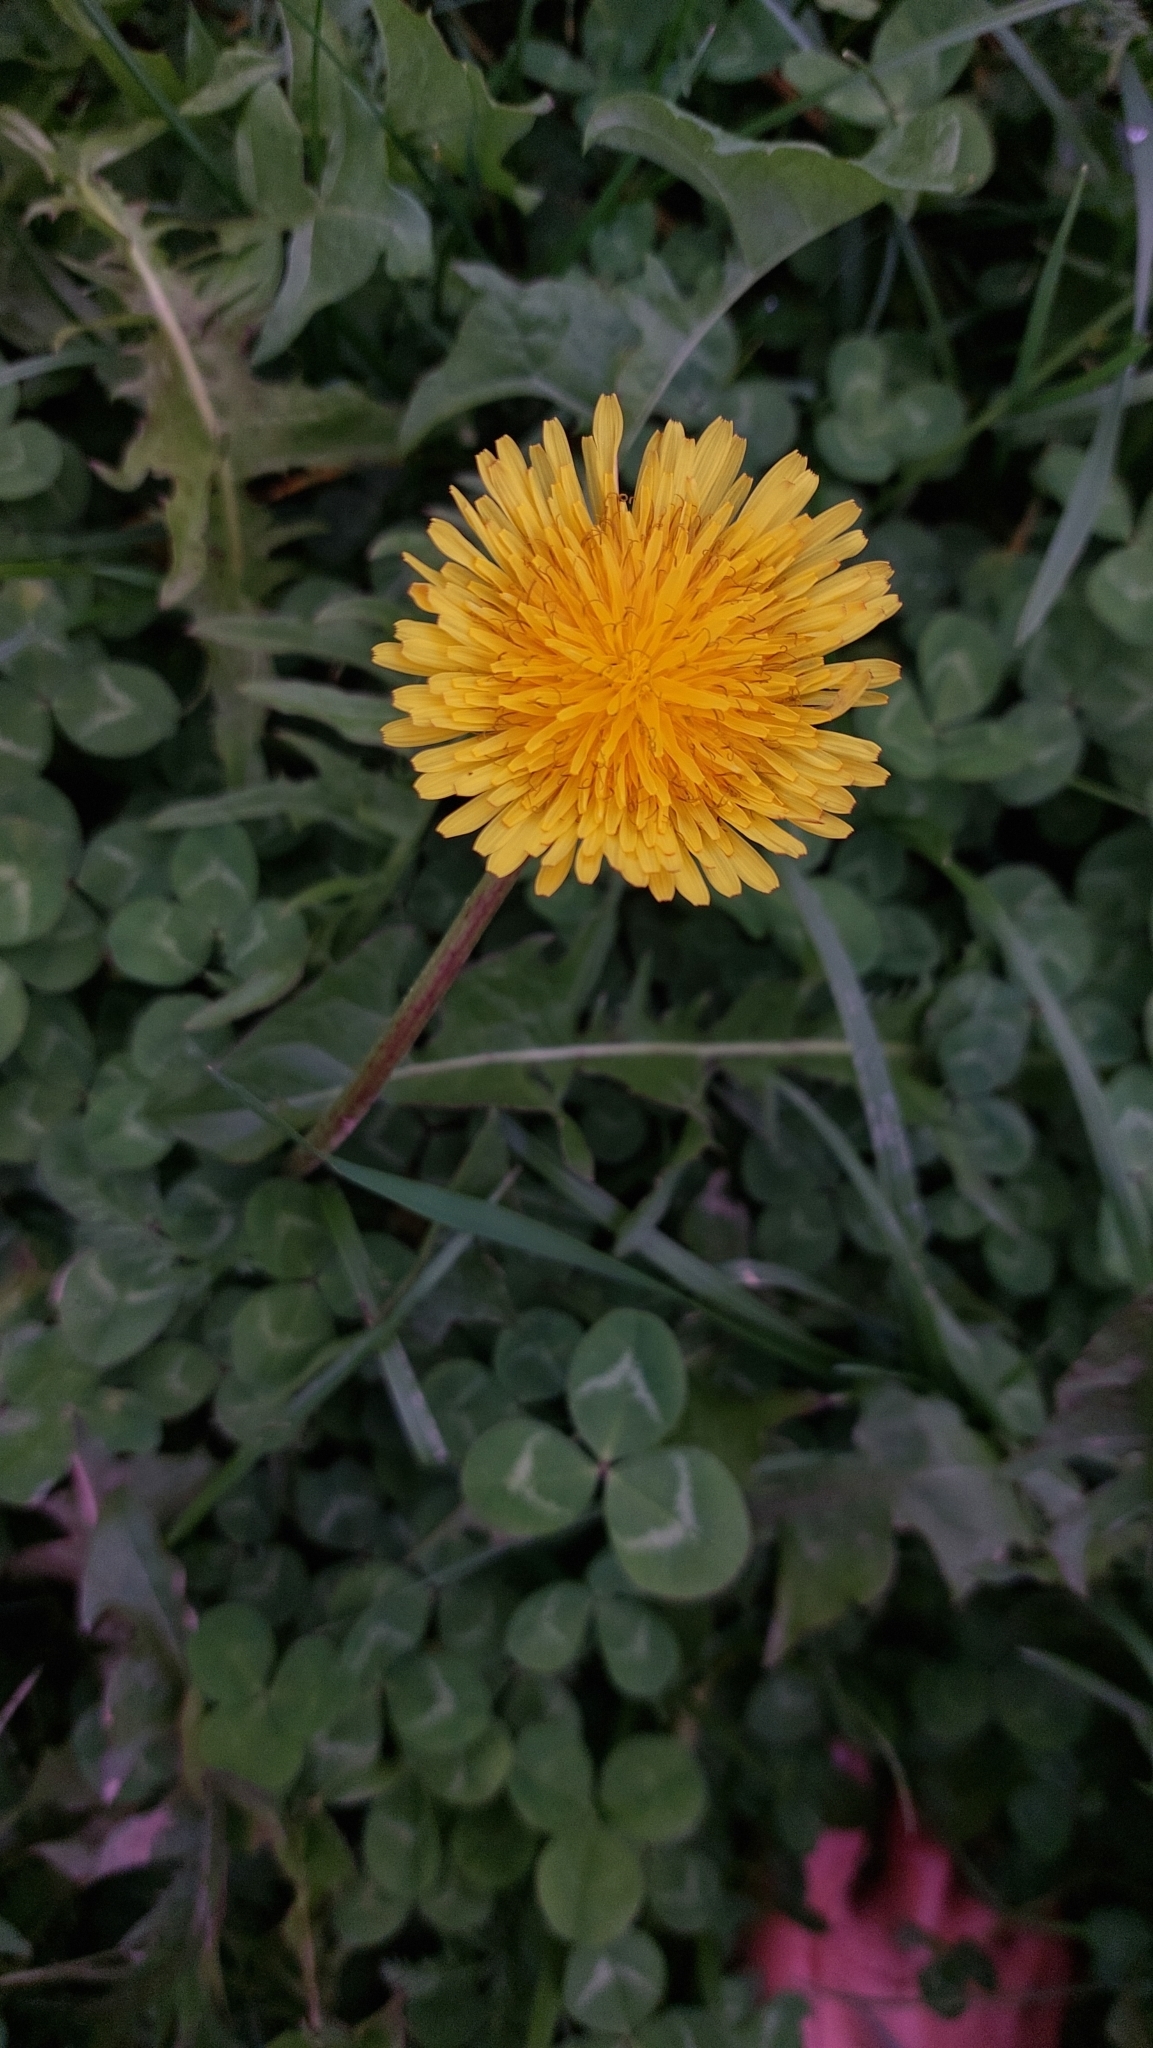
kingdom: Plantae
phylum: Tracheophyta
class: Magnoliopsida
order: Asterales
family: Asteraceae
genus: Taraxacum
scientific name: Taraxacum
